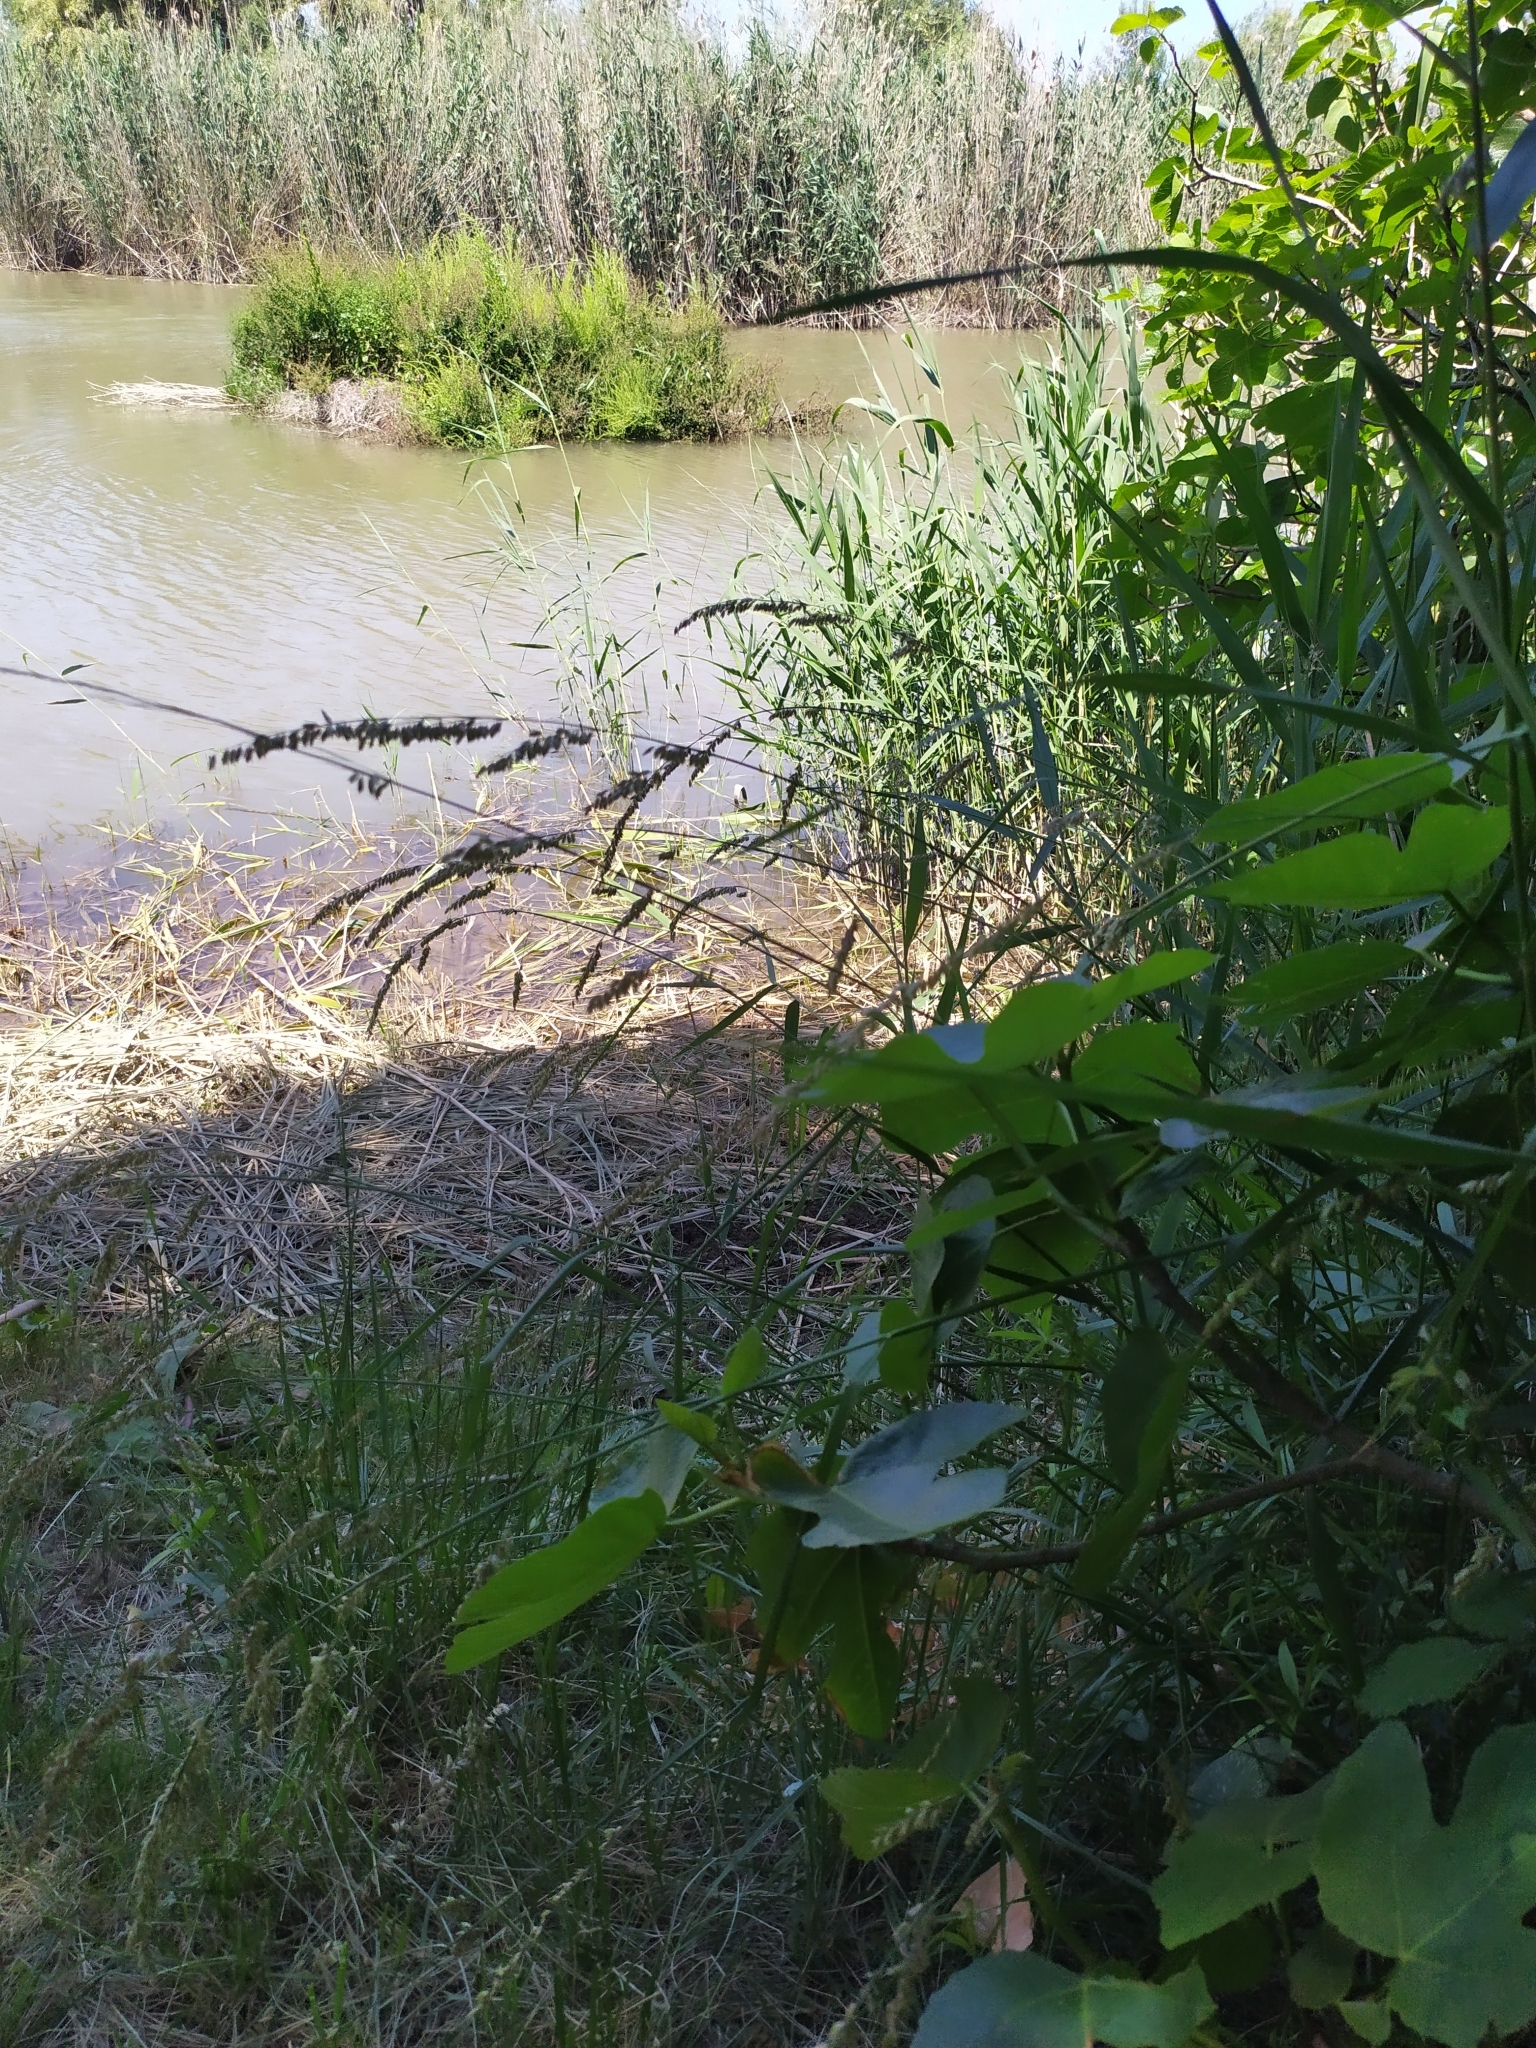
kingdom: Plantae
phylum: Tracheophyta
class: Liliopsida
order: Poales
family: Poaceae
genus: Melica
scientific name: Melica minuta
